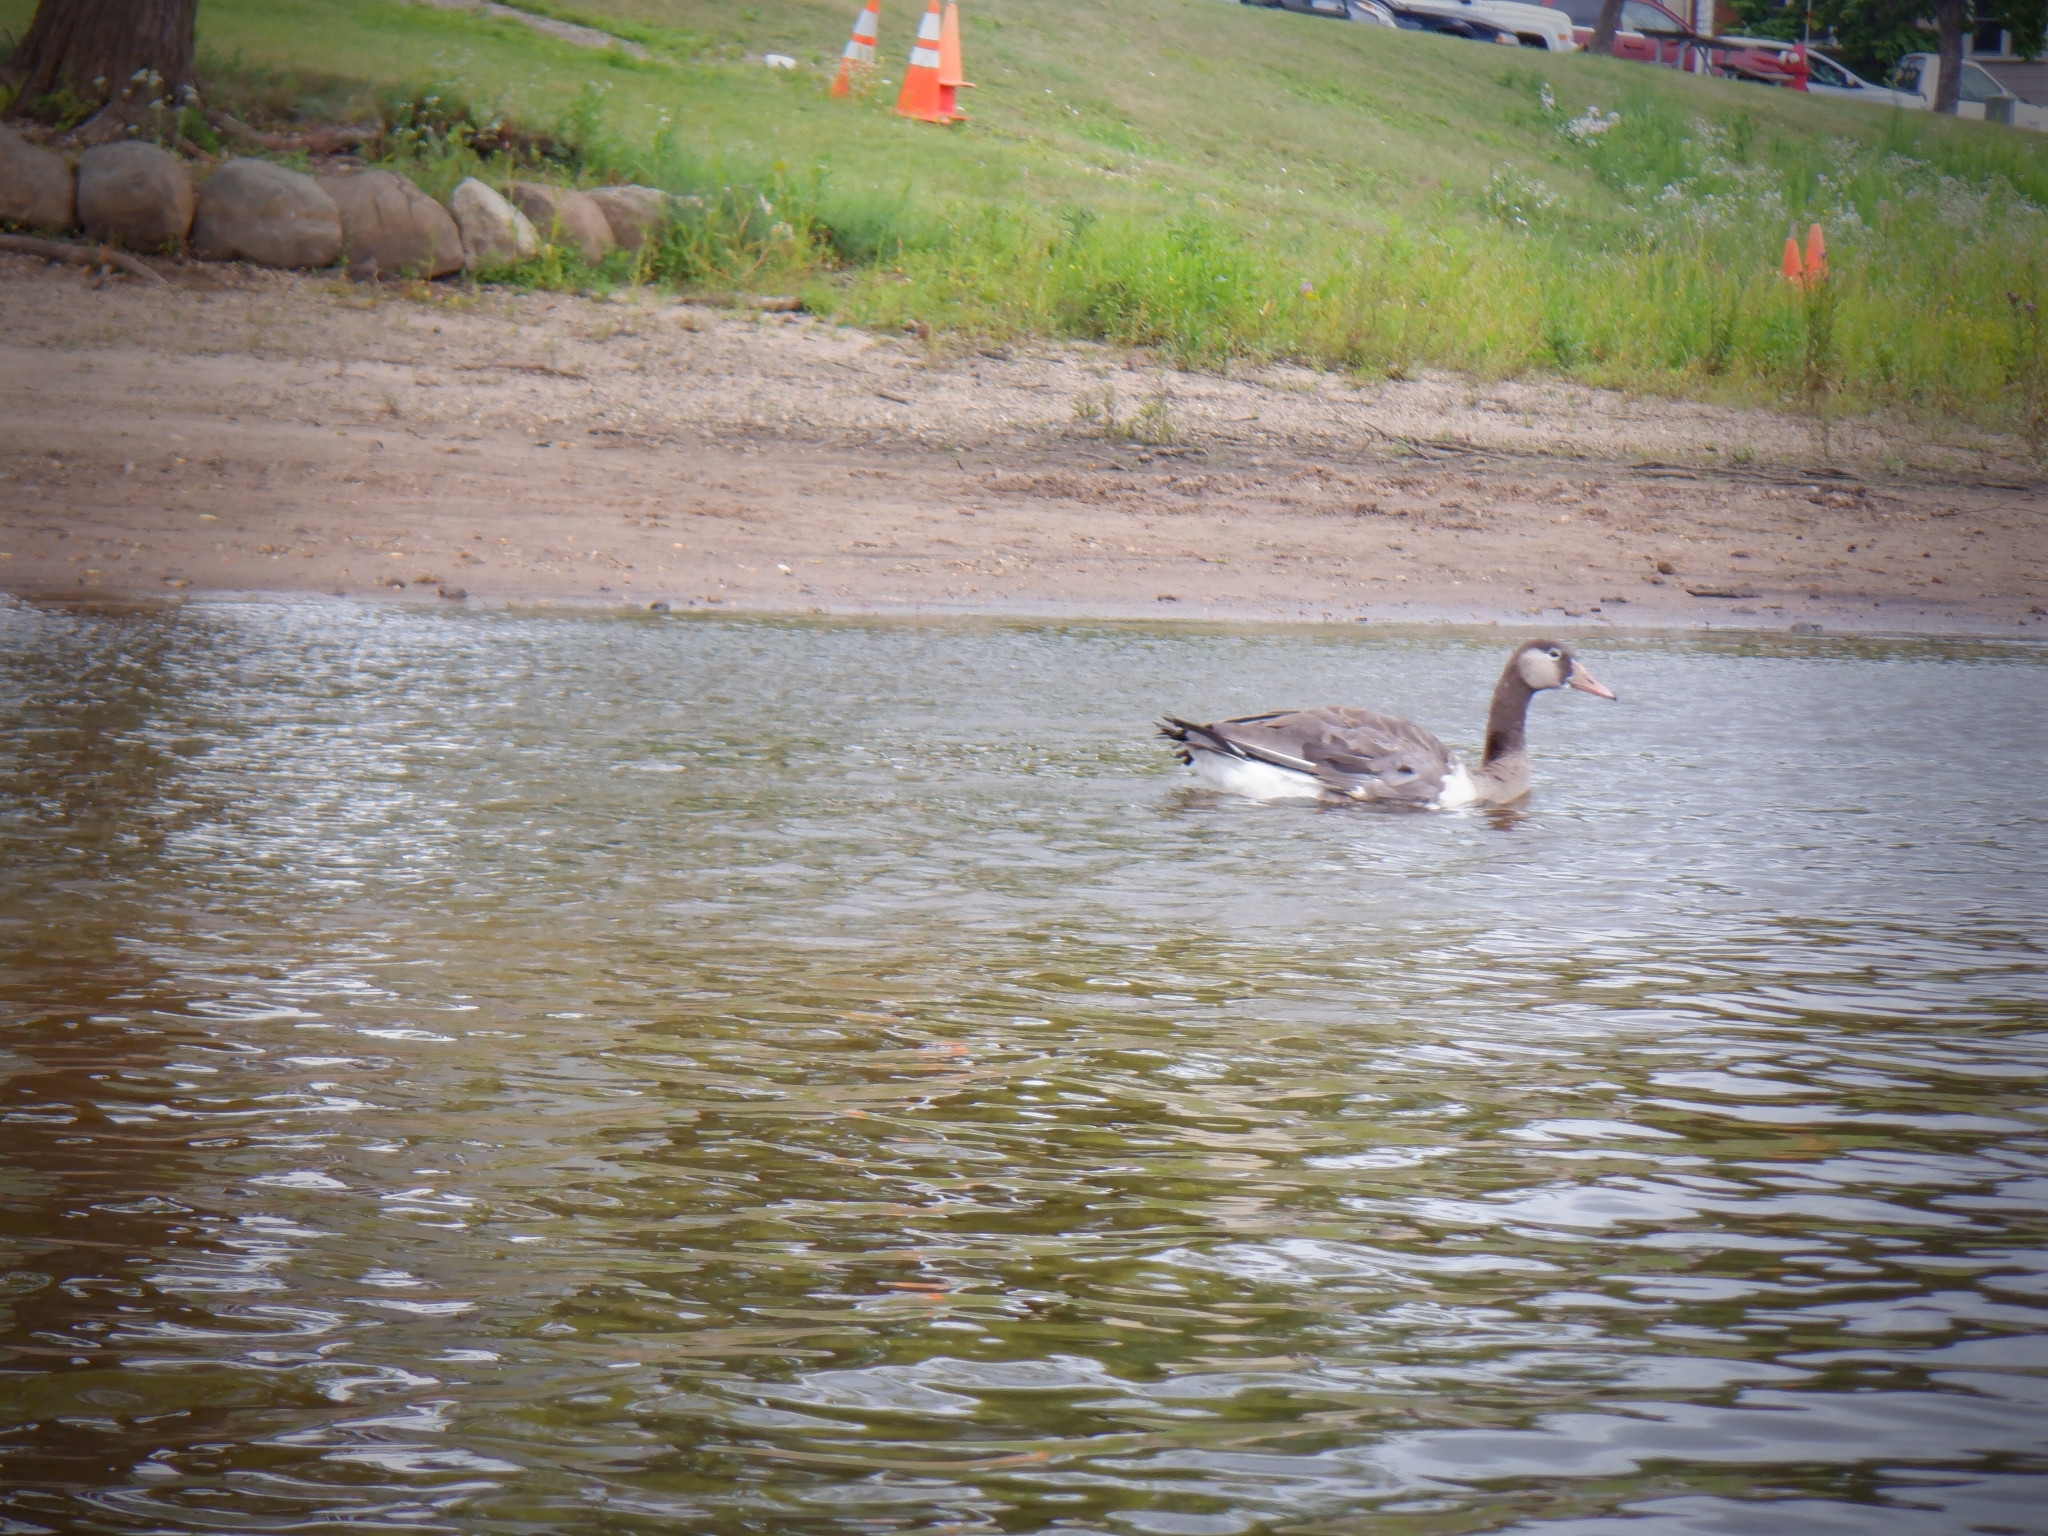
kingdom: Animalia
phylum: Chordata
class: Aves
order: Anseriformes
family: Anatidae
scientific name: Anatidae
